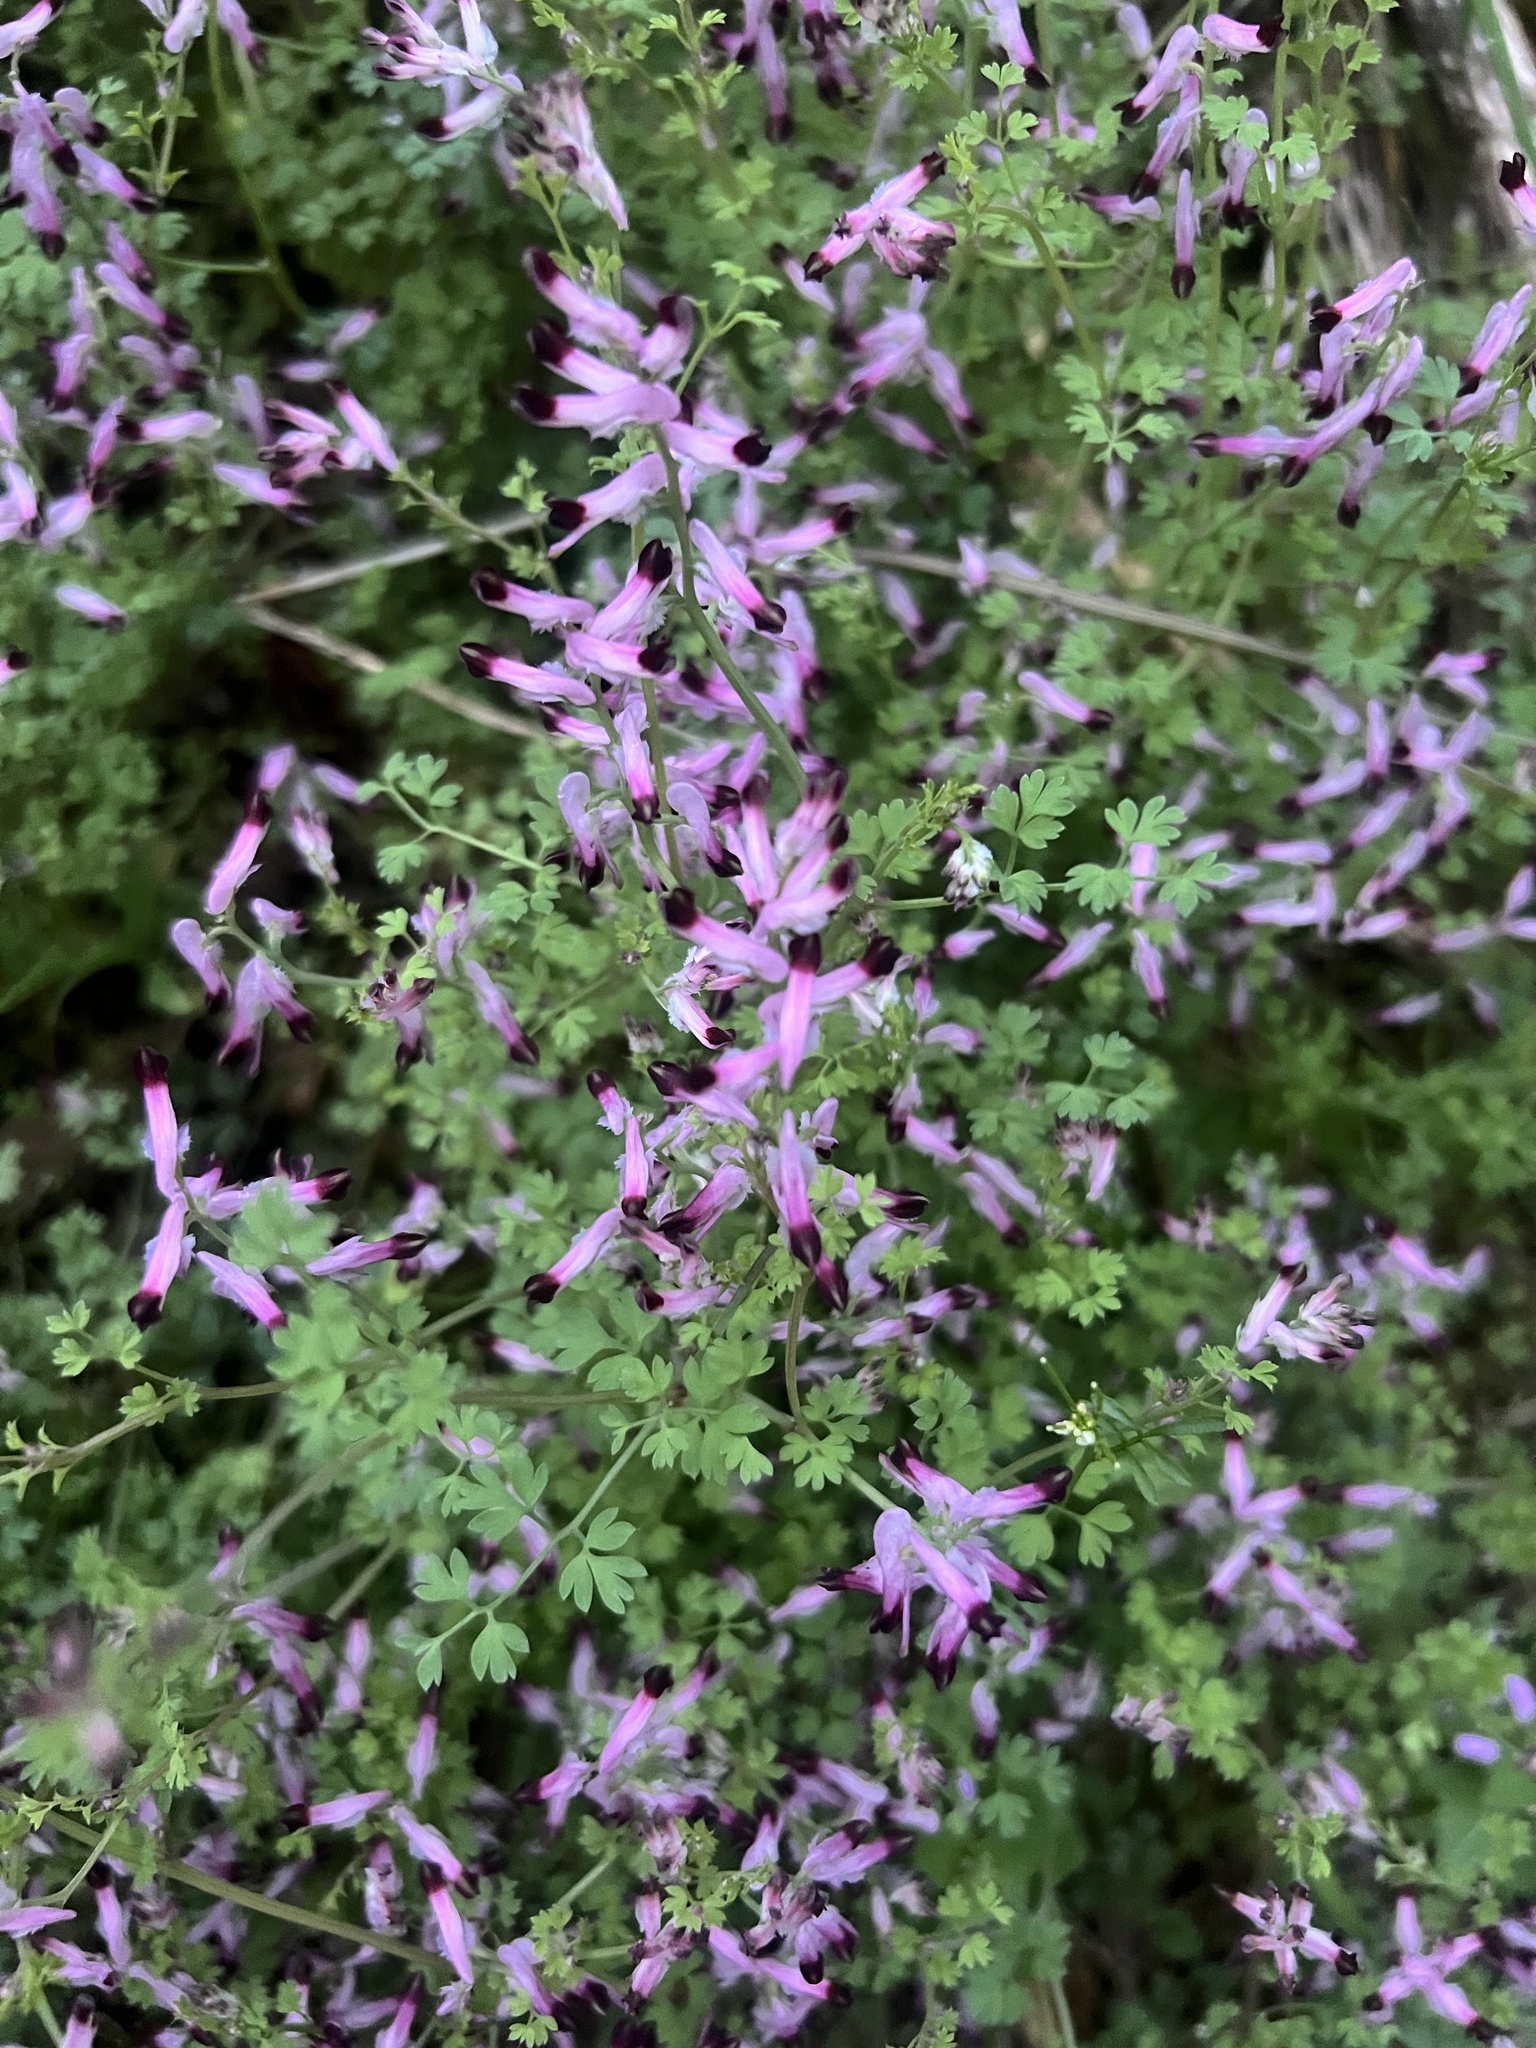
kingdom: Plantae
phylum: Tracheophyta
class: Magnoliopsida
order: Ranunculales
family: Papaveraceae
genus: Fumaria
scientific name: Fumaria muralis
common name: Common ramping-fumitory
